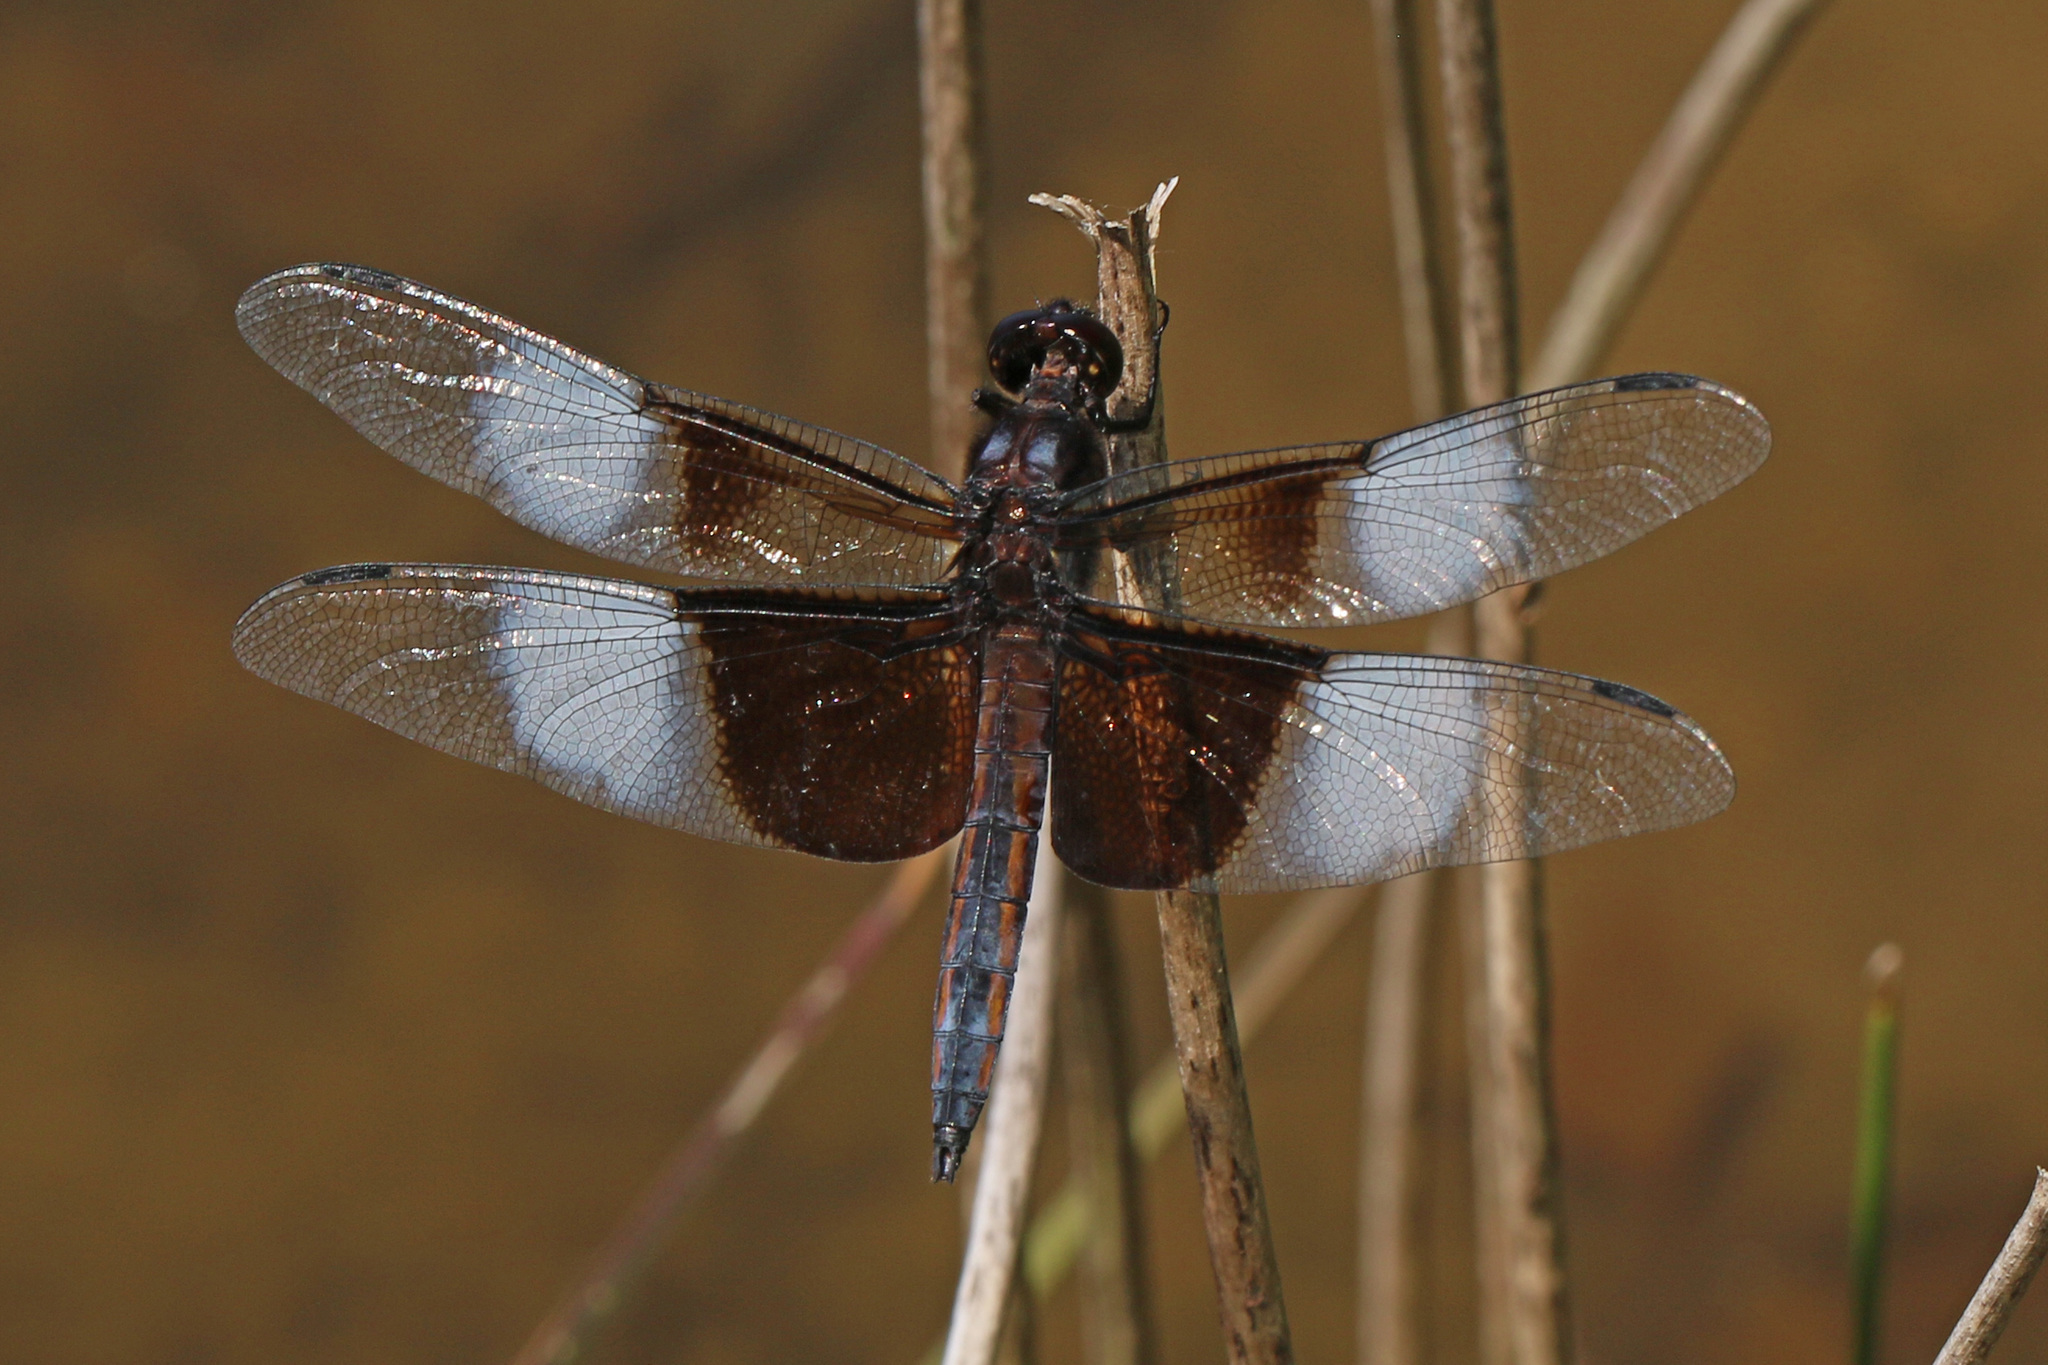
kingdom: Animalia
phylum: Arthropoda
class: Insecta
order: Odonata
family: Libellulidae
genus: Libellula
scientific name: Libellula luctuosa
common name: Widow skimmer
